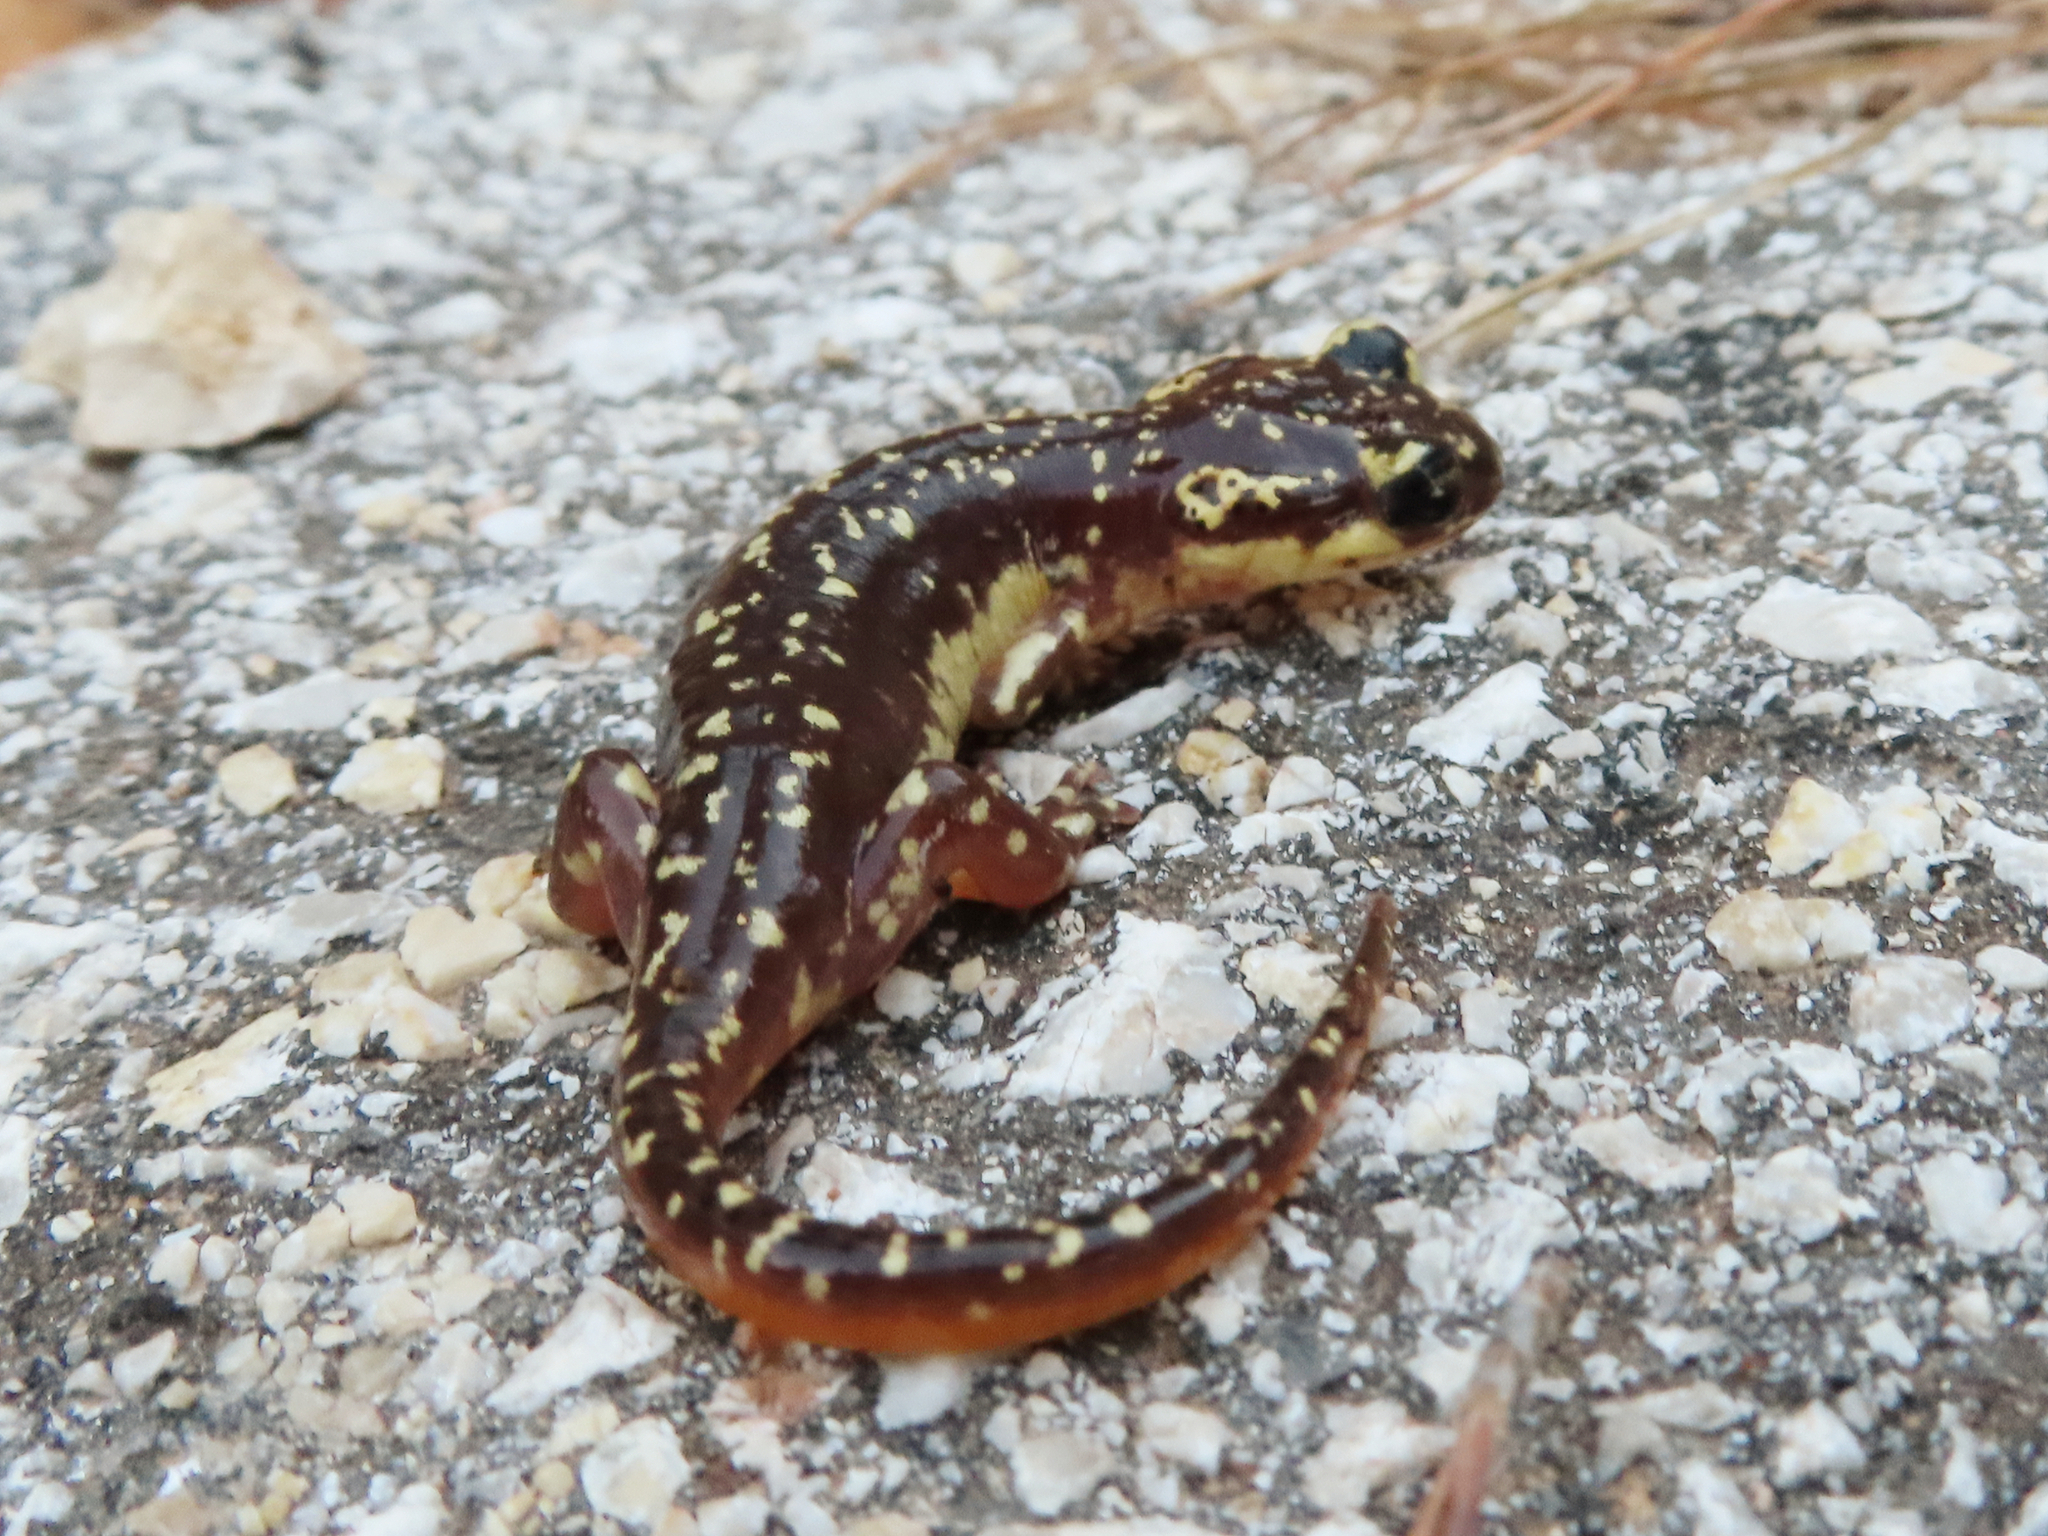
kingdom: Animalia
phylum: Chordata
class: Amphibia
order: Caudata
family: Salamandridae
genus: Lyciasalamandra
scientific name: Lyciasalamandra helverseni
